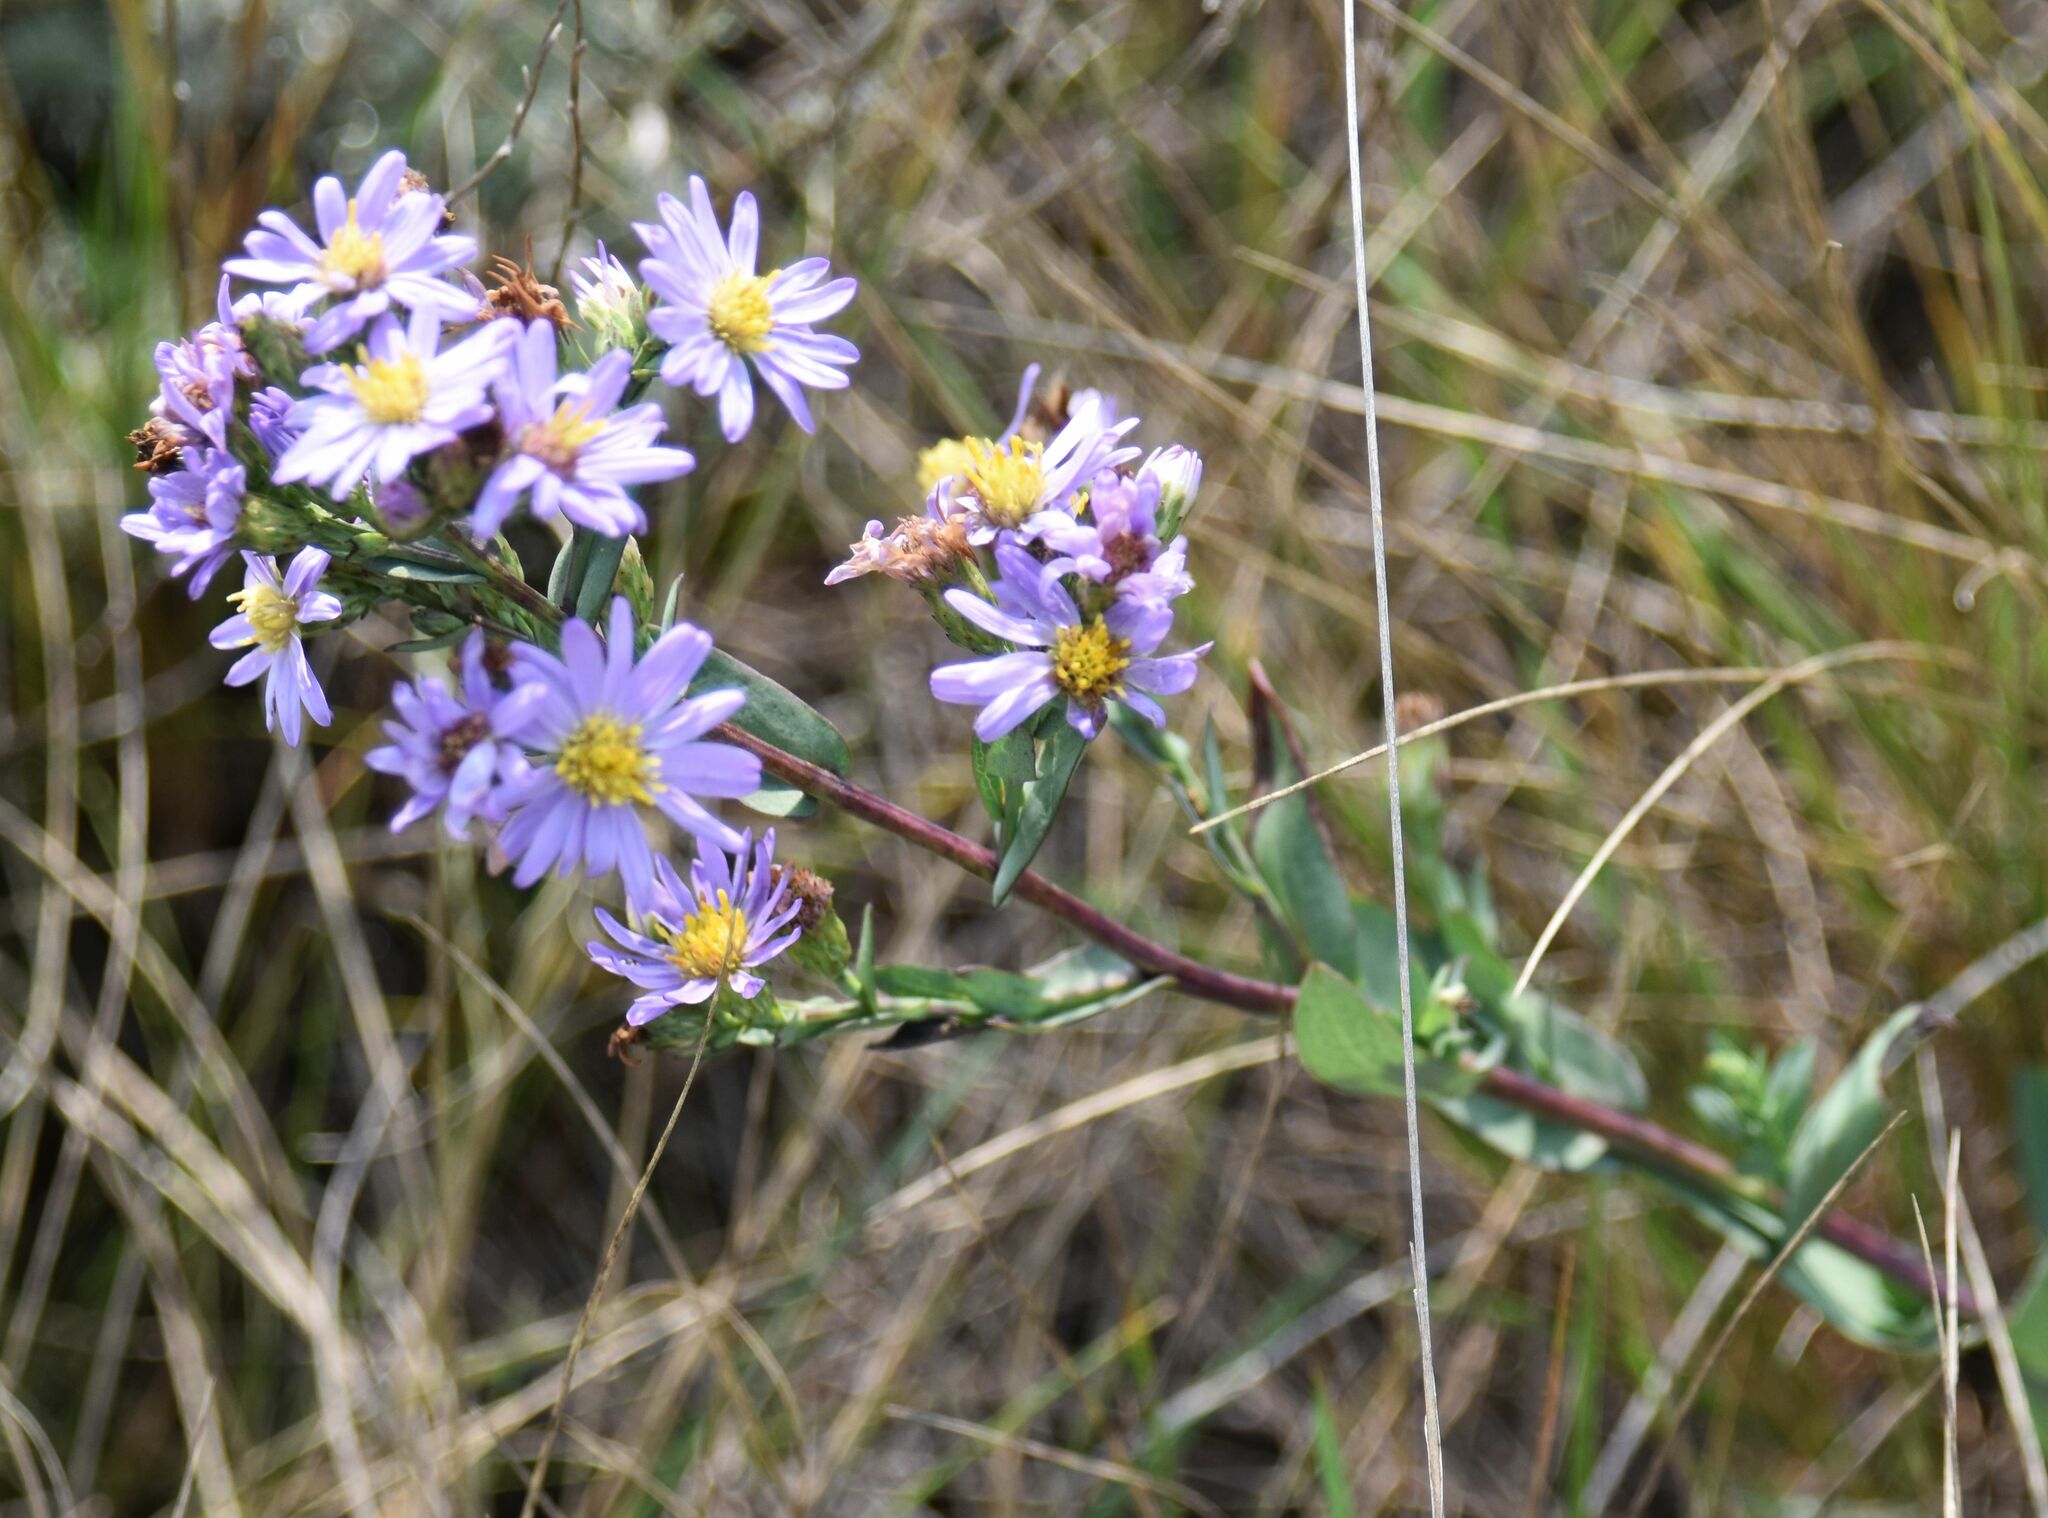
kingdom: Plantae
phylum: Tracheophyta
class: Magnoliopsida
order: Asterales
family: Asteraceae
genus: Symphyotrichum
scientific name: Symphyotrichum laeve
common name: Glaucous aster
